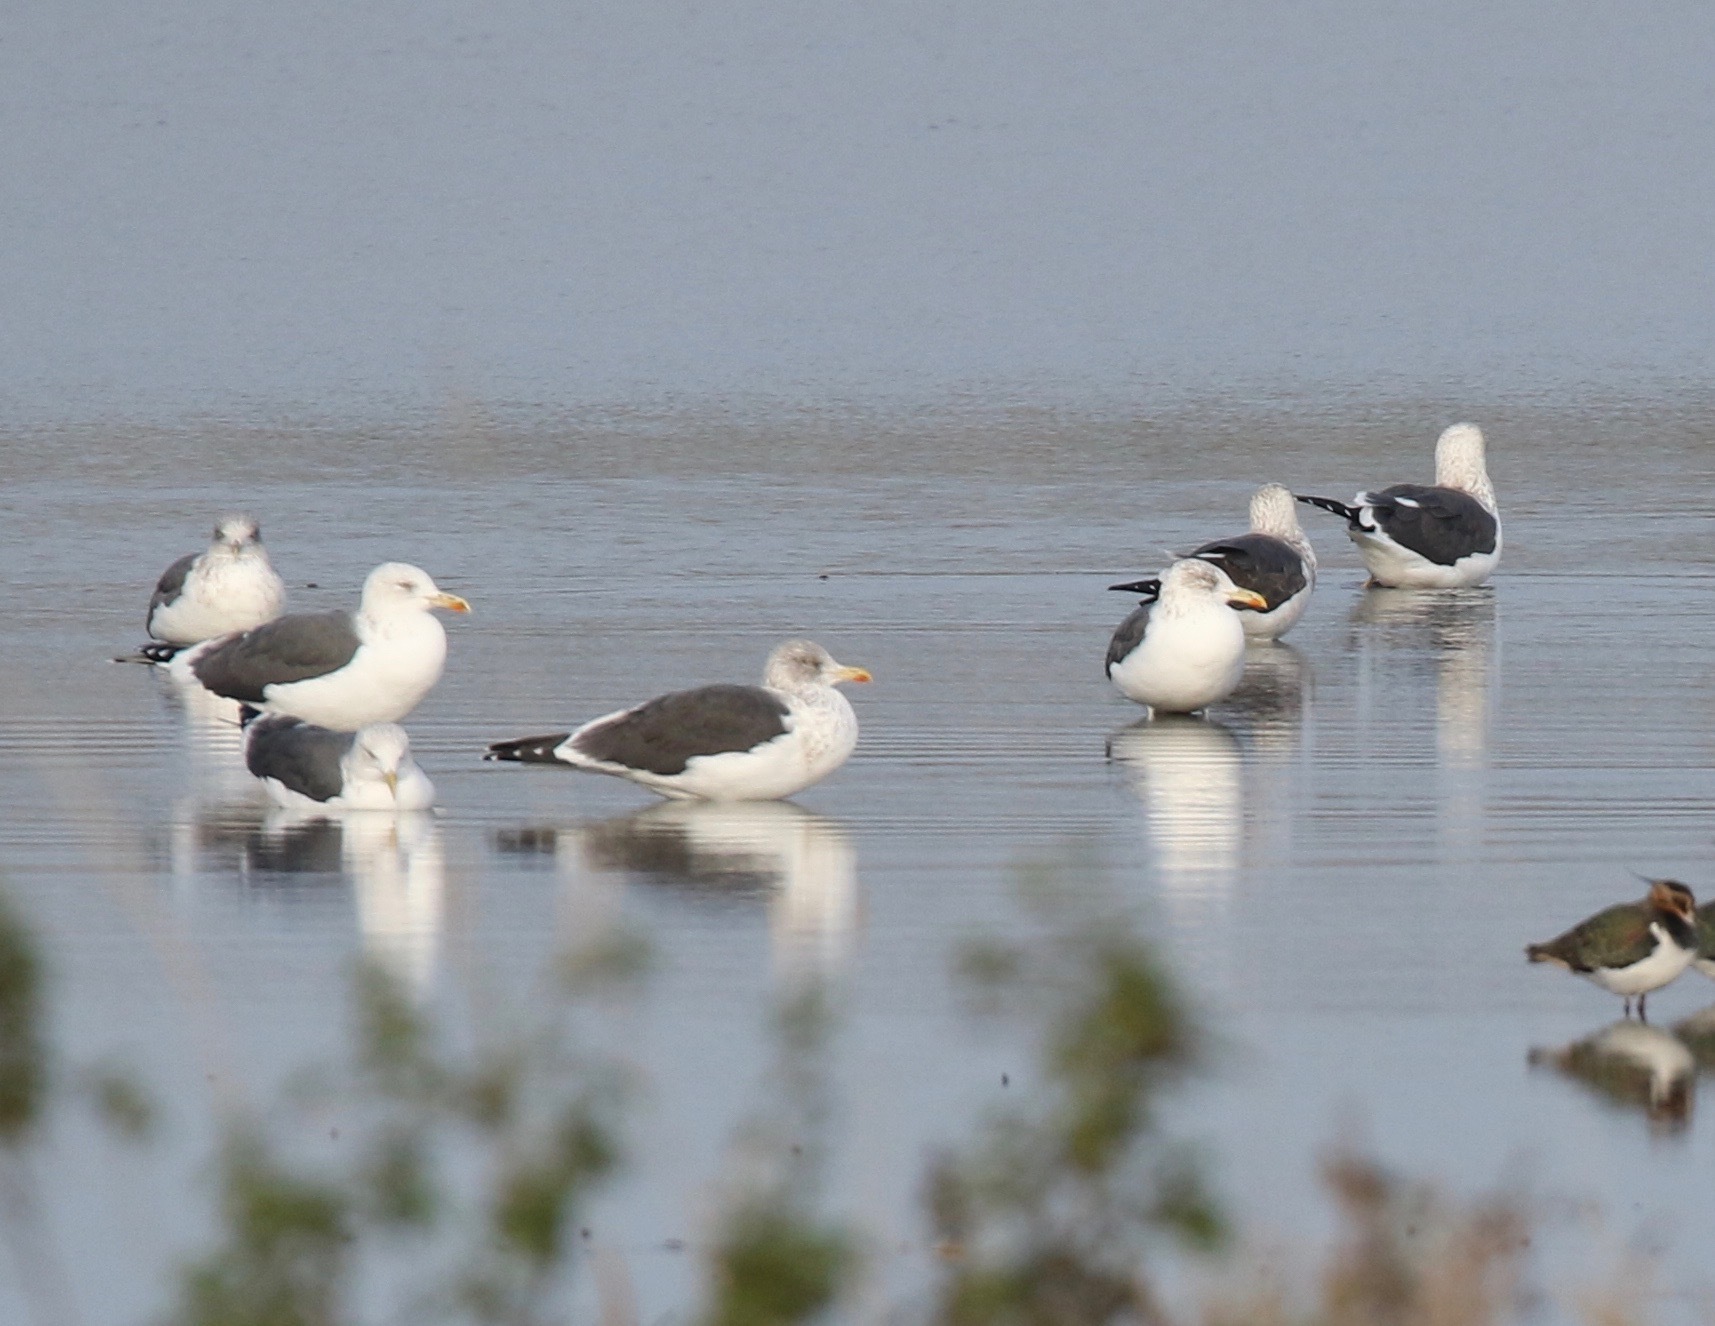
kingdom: Animalia
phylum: Chordata
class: Aves
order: Charadriiformes
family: Laridae
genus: Larus
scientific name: Larus fuscus
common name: Lesser black-backed gull
